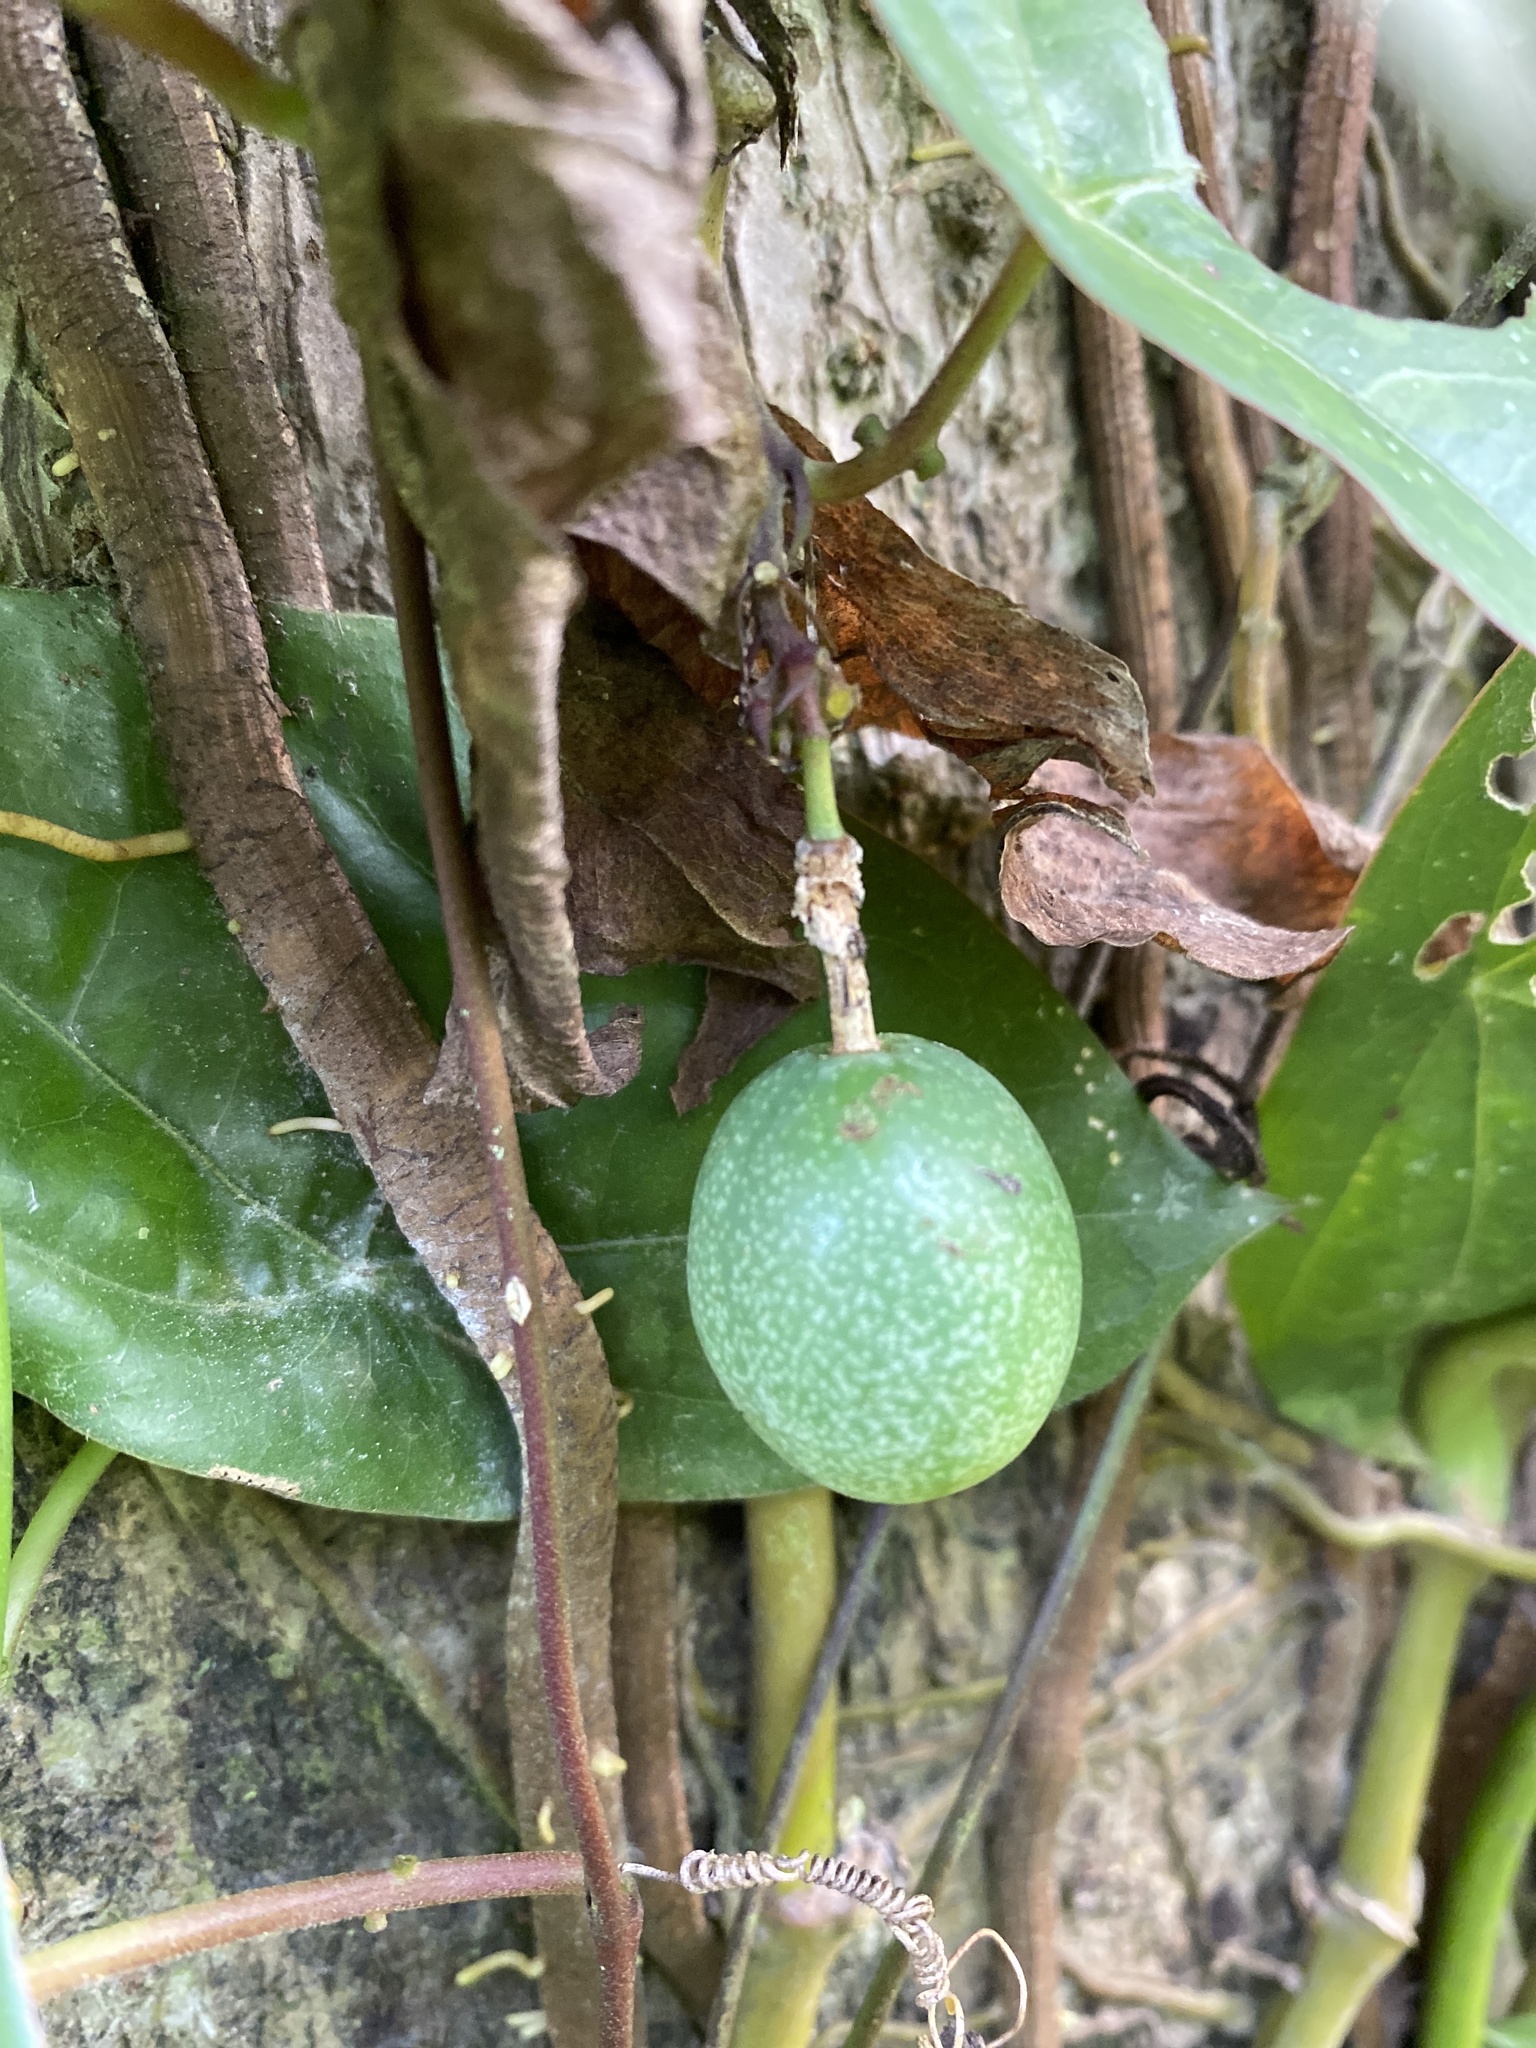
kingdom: Plantae
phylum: Tracheophyta
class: Magnoliopsida
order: Malpighiales
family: Passifloraceae
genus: Passiflora
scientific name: Passiflora sexocellata
